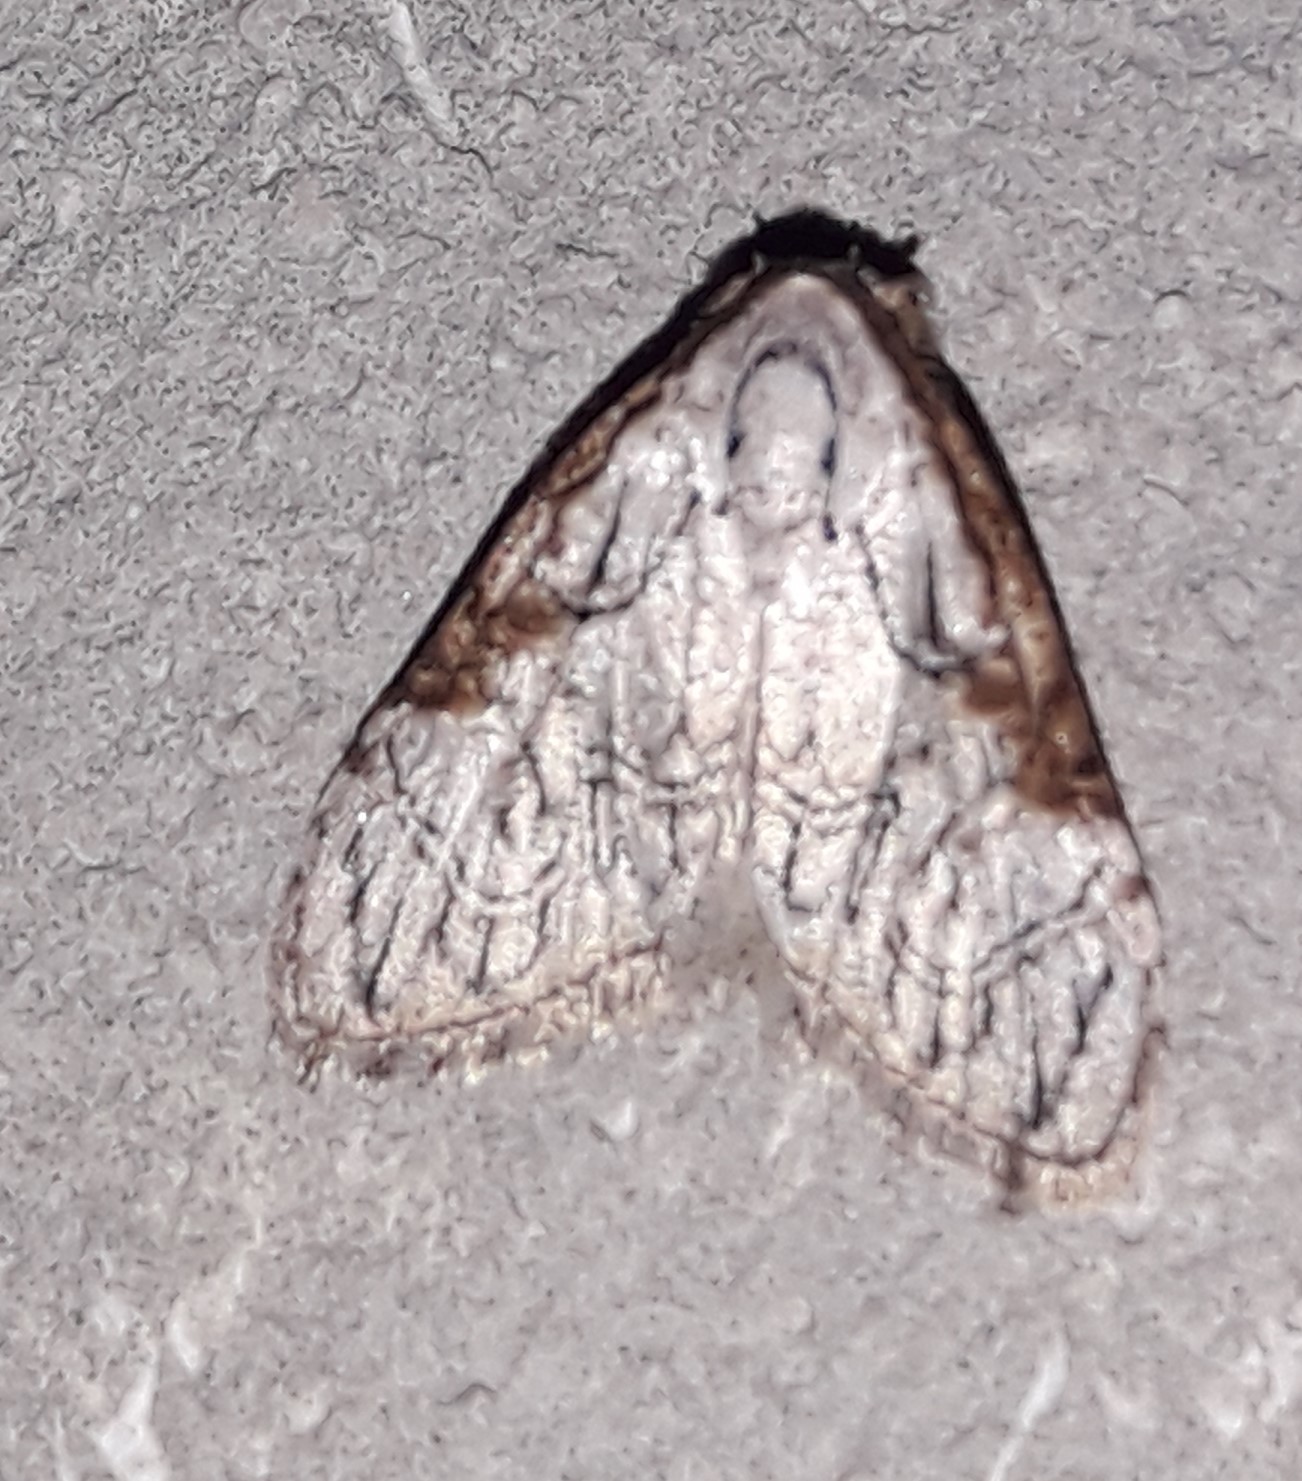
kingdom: Animalia
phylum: Arthropoda
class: Insecta
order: Lepidoptera
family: Nolidae
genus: Nola
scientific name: Nola bifiliferata
